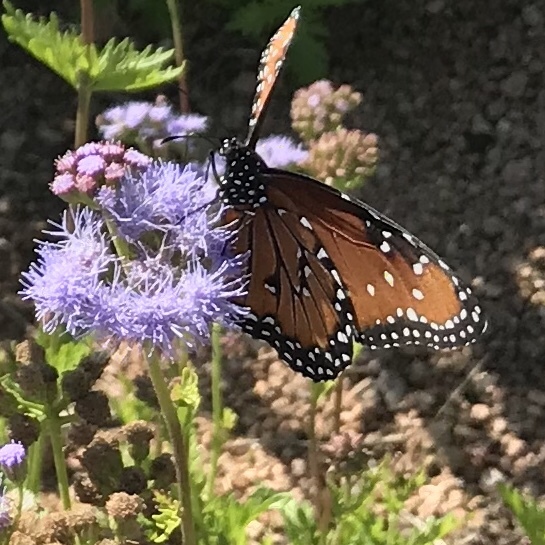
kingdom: Animalia
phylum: Arthropoda
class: Insecta
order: Lepidoptera
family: Nymphalidae
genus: Danaus
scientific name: Danaus gilippus
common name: Queen
